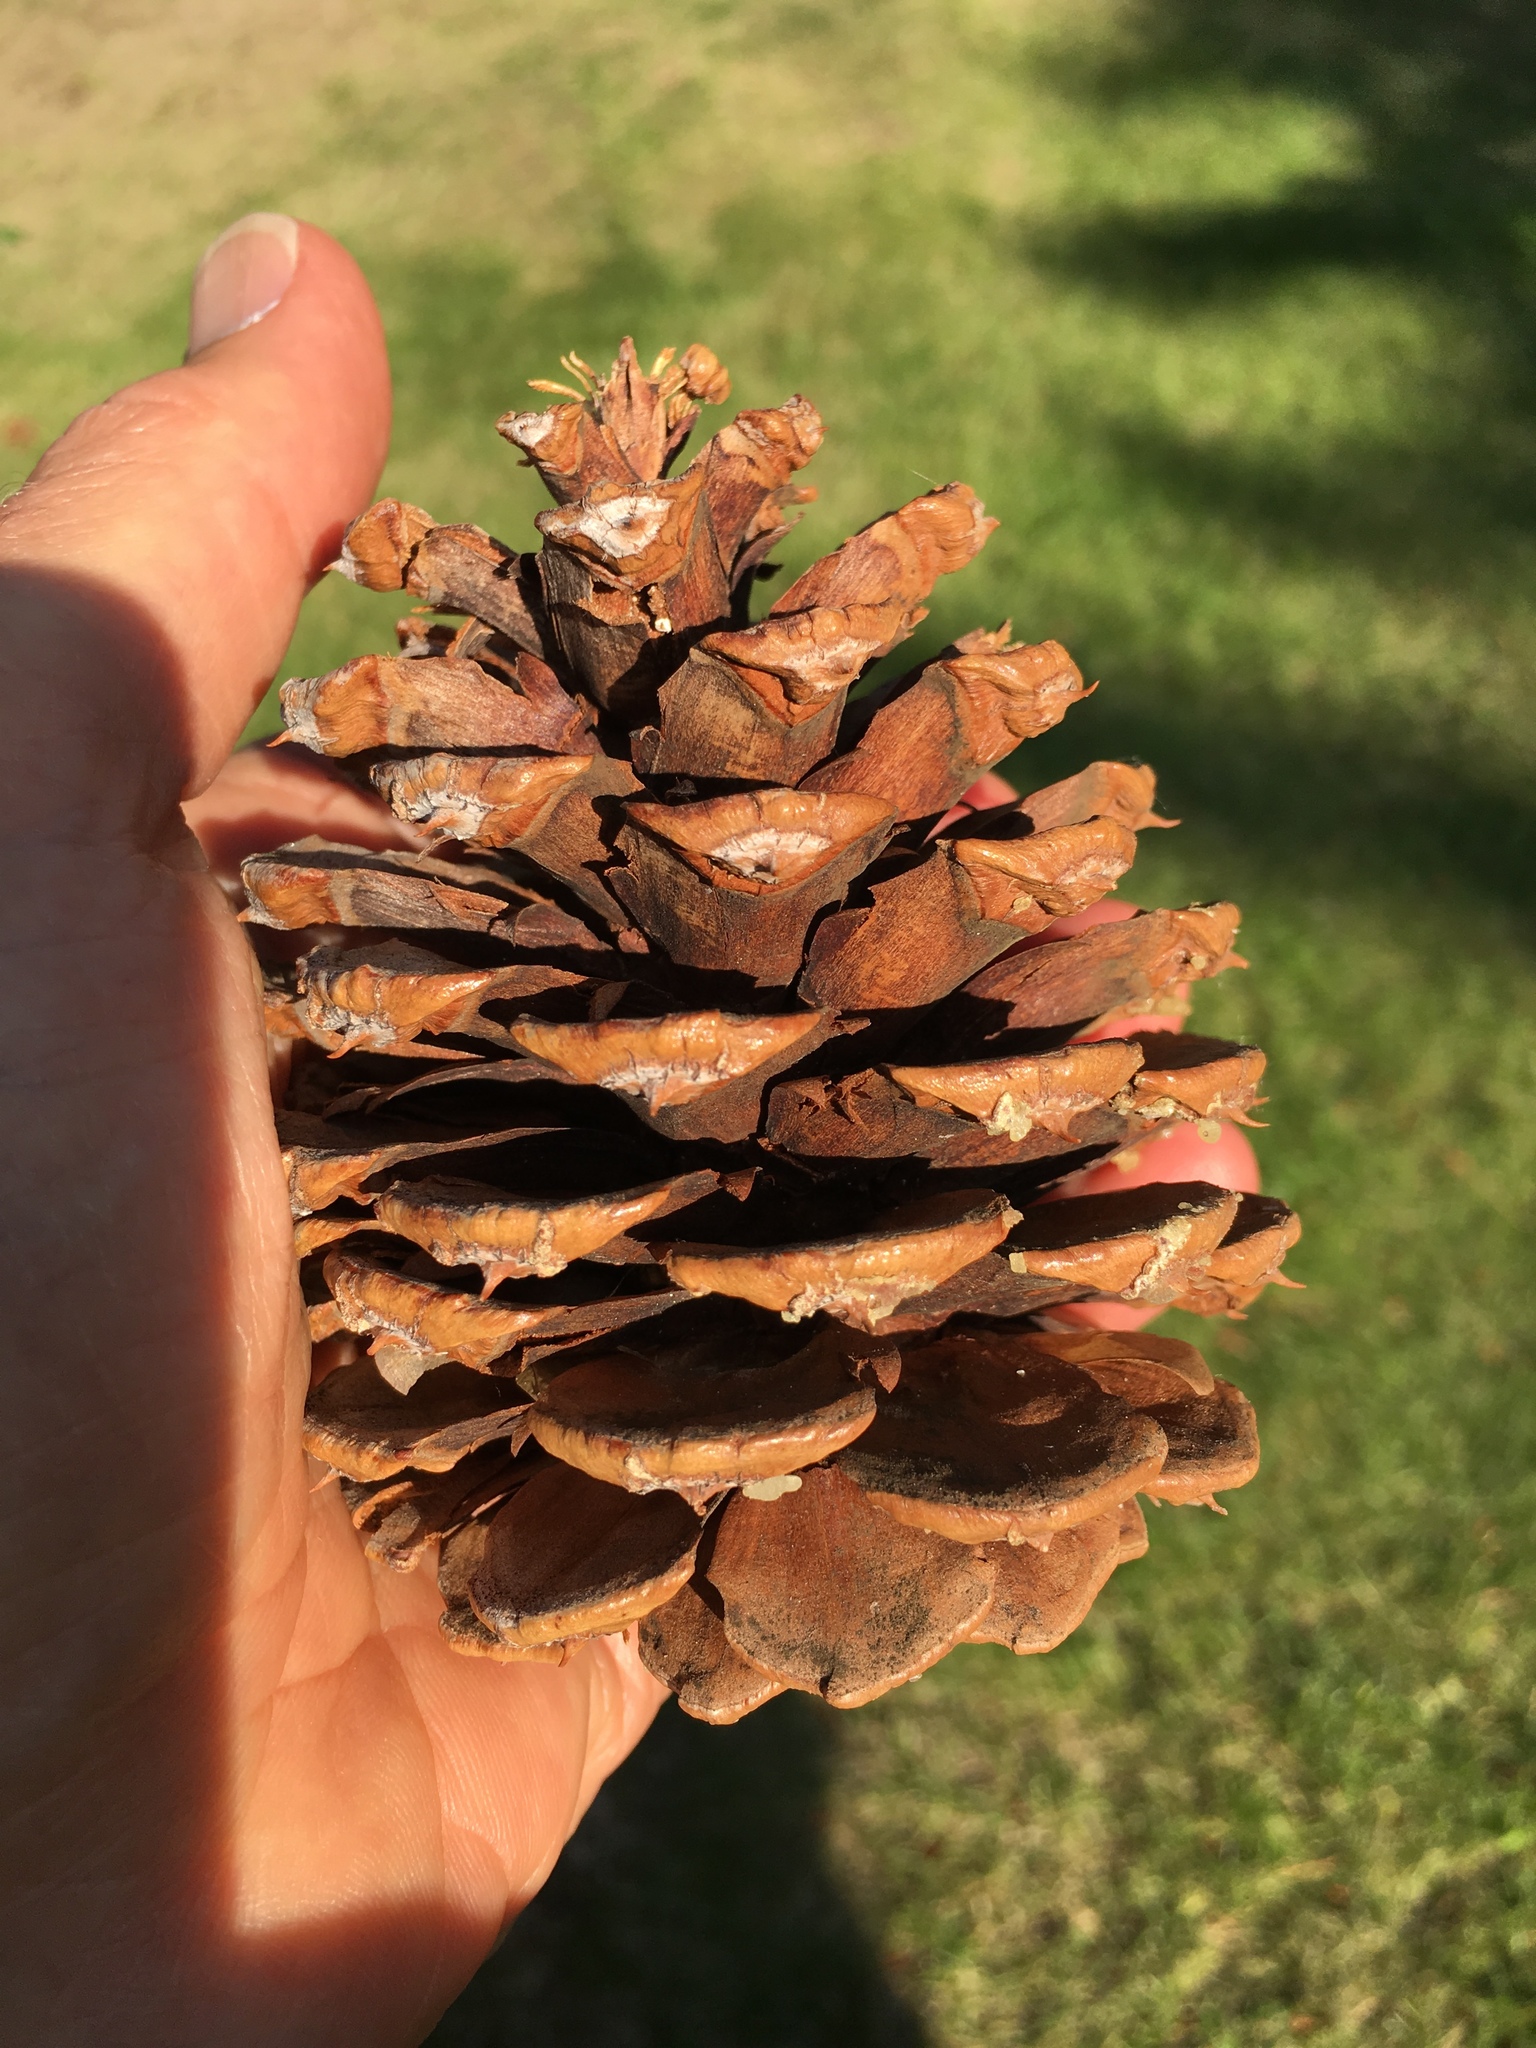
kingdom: Plantae
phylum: Tracheophyta
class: Pinopsida
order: Pinales
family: Pinaceae
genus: Pinus
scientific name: Pinus ponderosa
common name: Western yellow-pine
